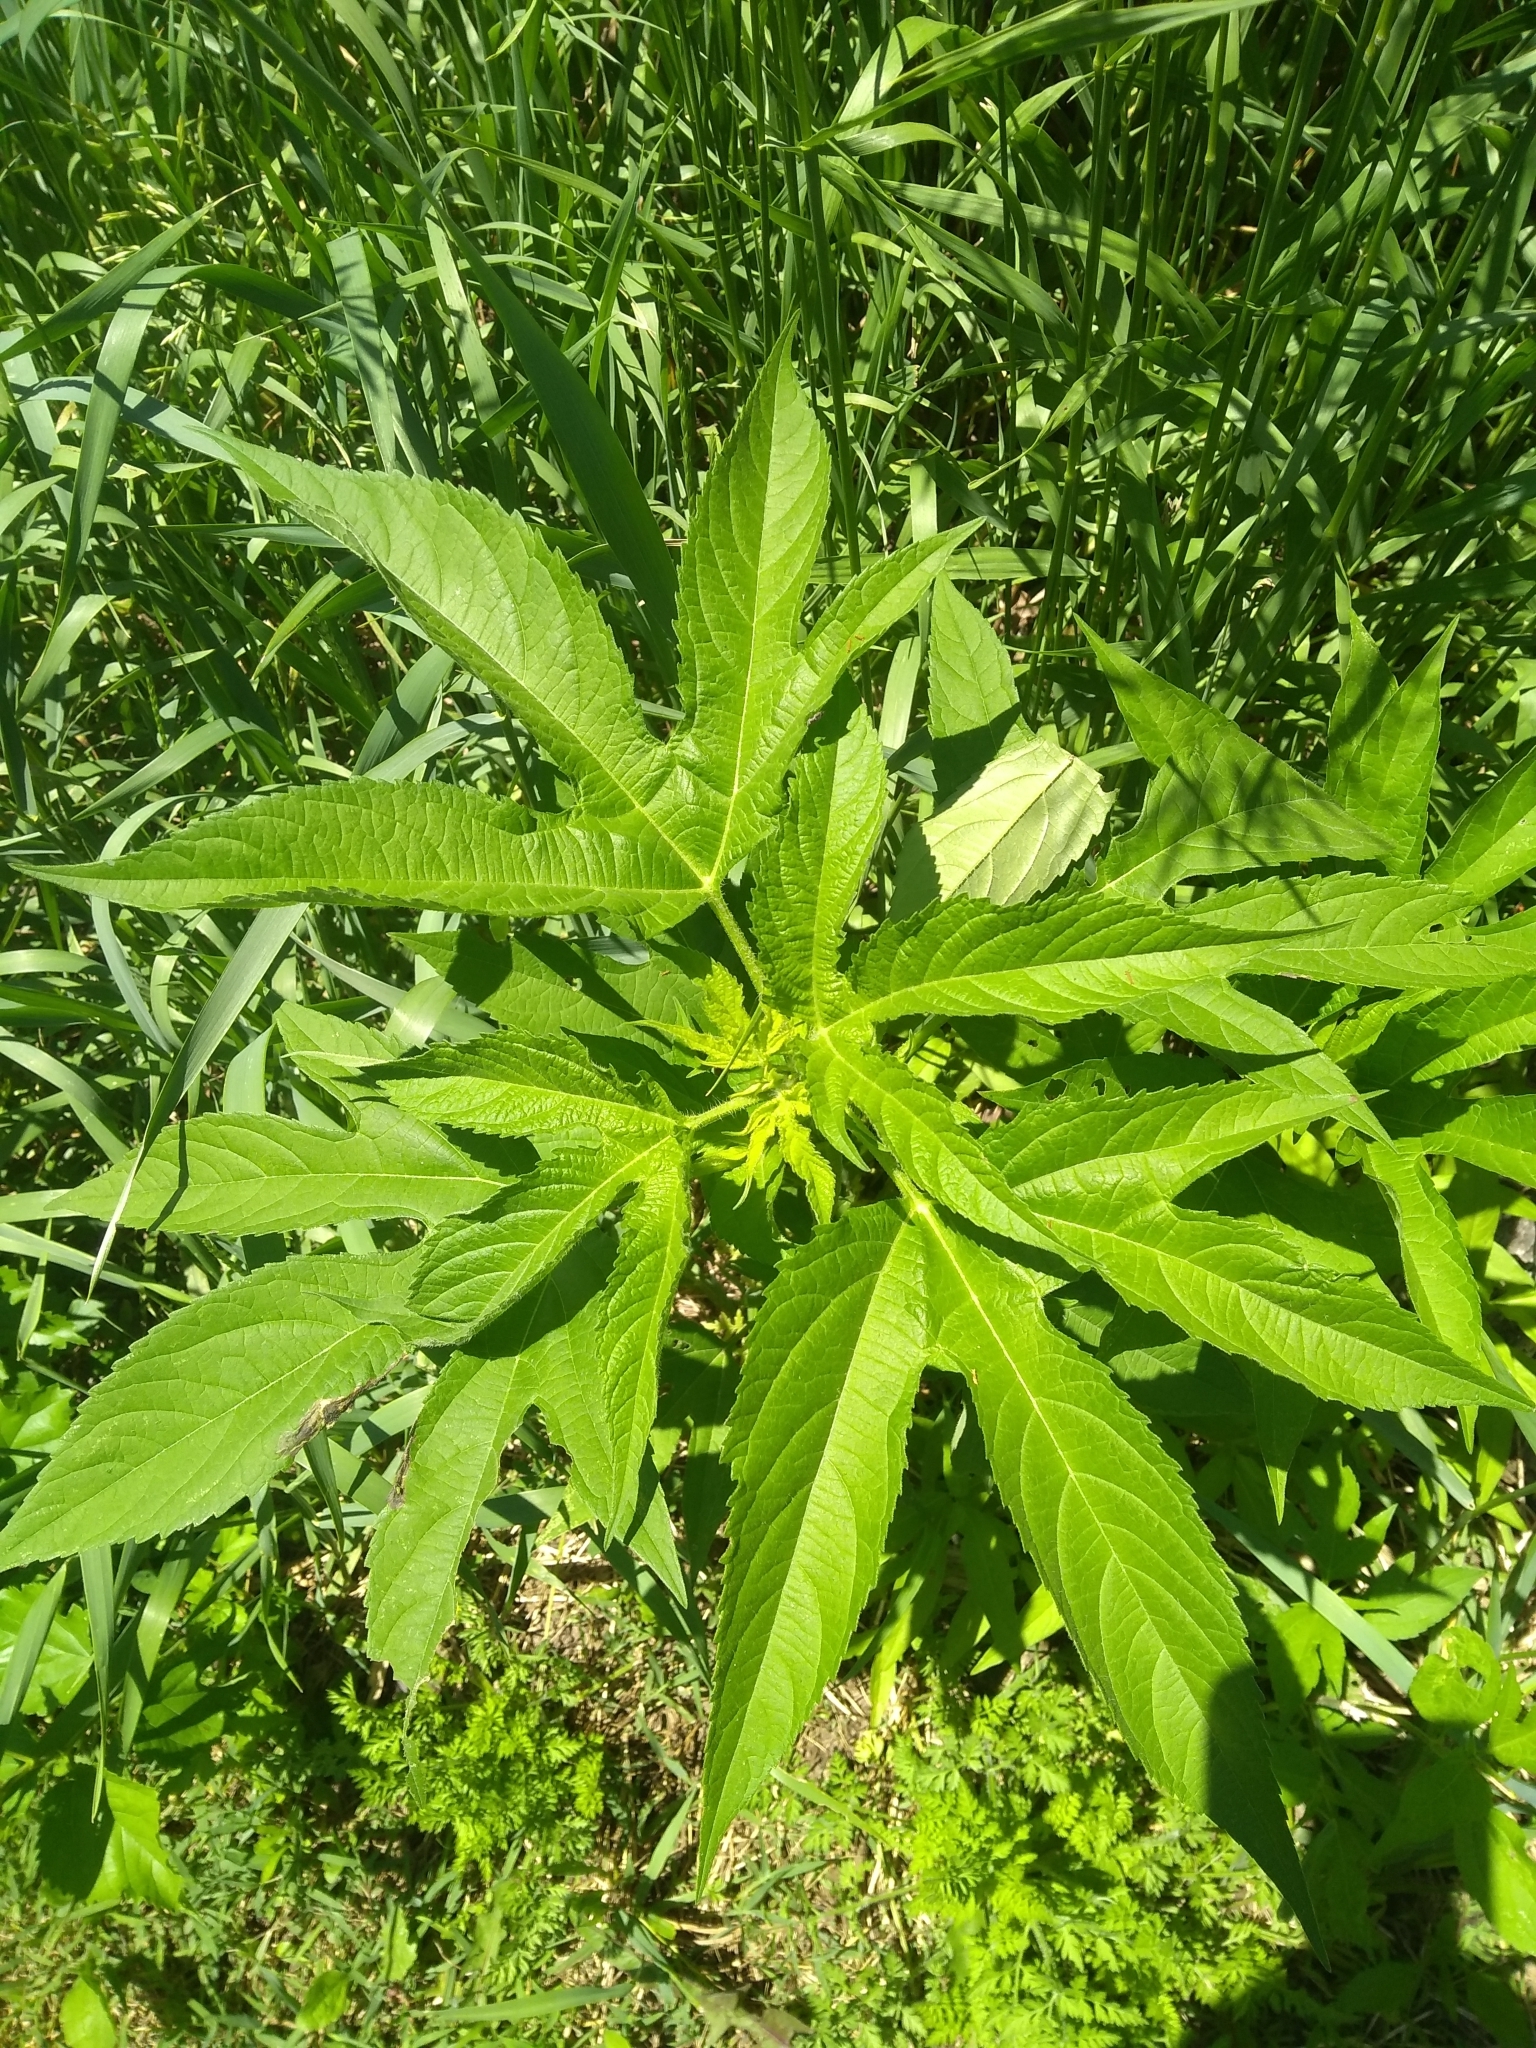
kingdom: Plantae
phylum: Tracheophyta
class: Magnoliopsida
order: Asterales
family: Asteraceae
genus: Ambrosia
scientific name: Ambrosia trifida
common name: Giant ragweed
